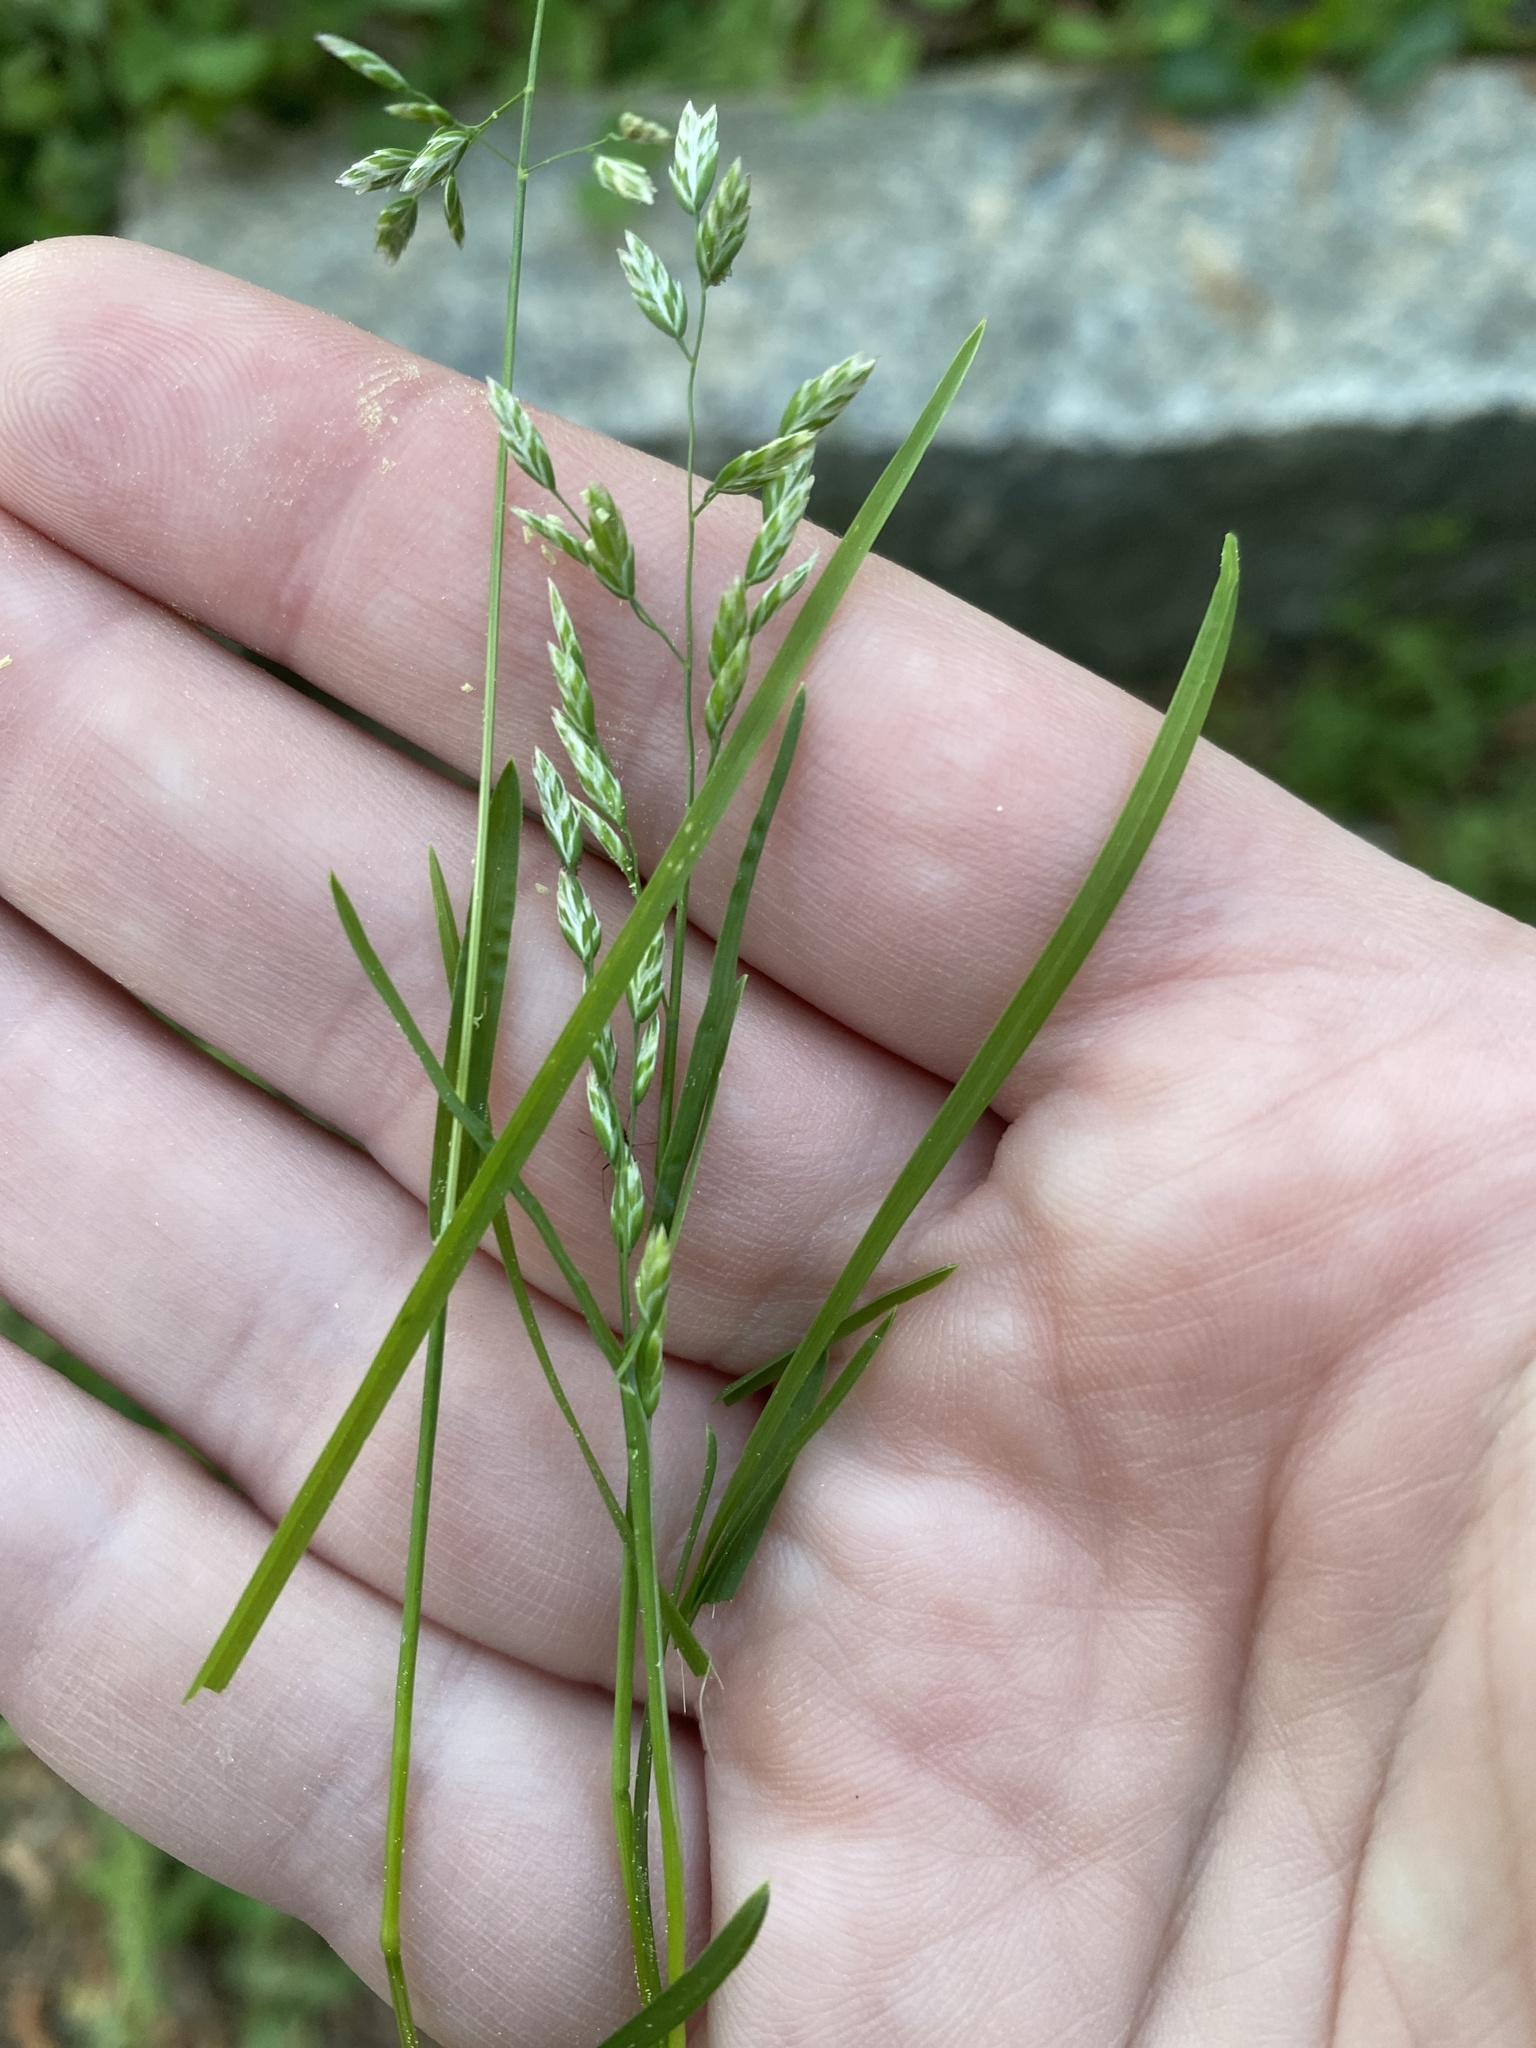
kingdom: Plantae
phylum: Tracheophyta
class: Liliopsida
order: Poales
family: Poaceae
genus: Poa
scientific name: Poa annua
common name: Annual bluegrass
